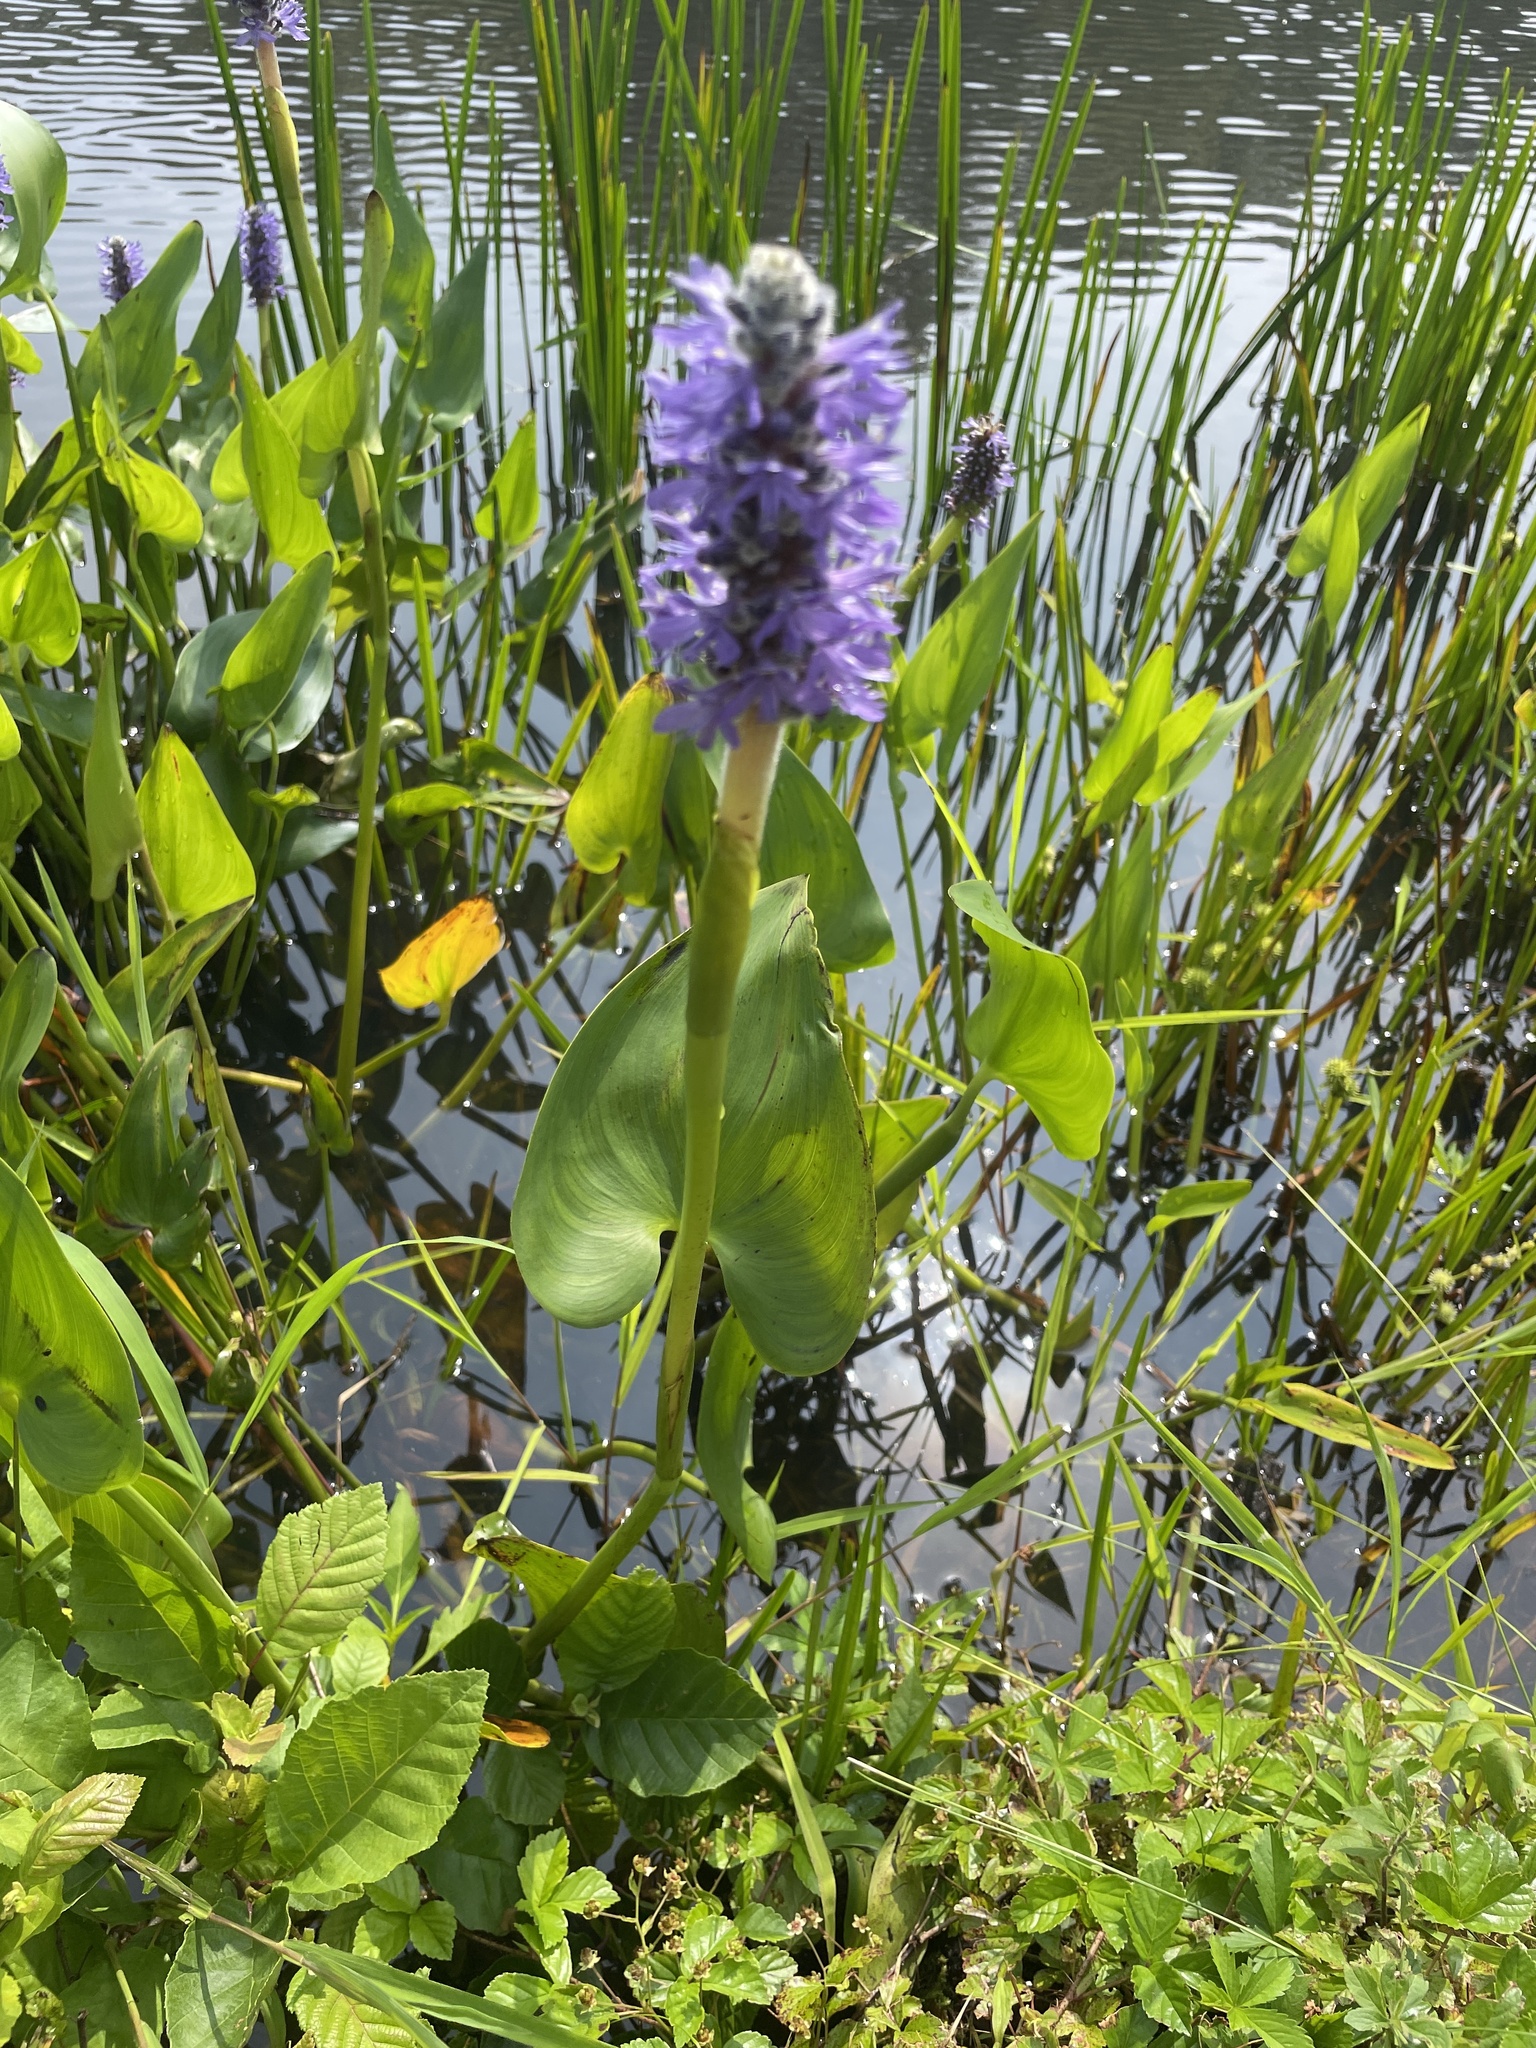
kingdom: Plantae
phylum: Tracheophyta
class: Liliopsida
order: Commelinales
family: Pontederiaceae
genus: Pontederia
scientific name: Pontederia cordata
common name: Pickerelweed
